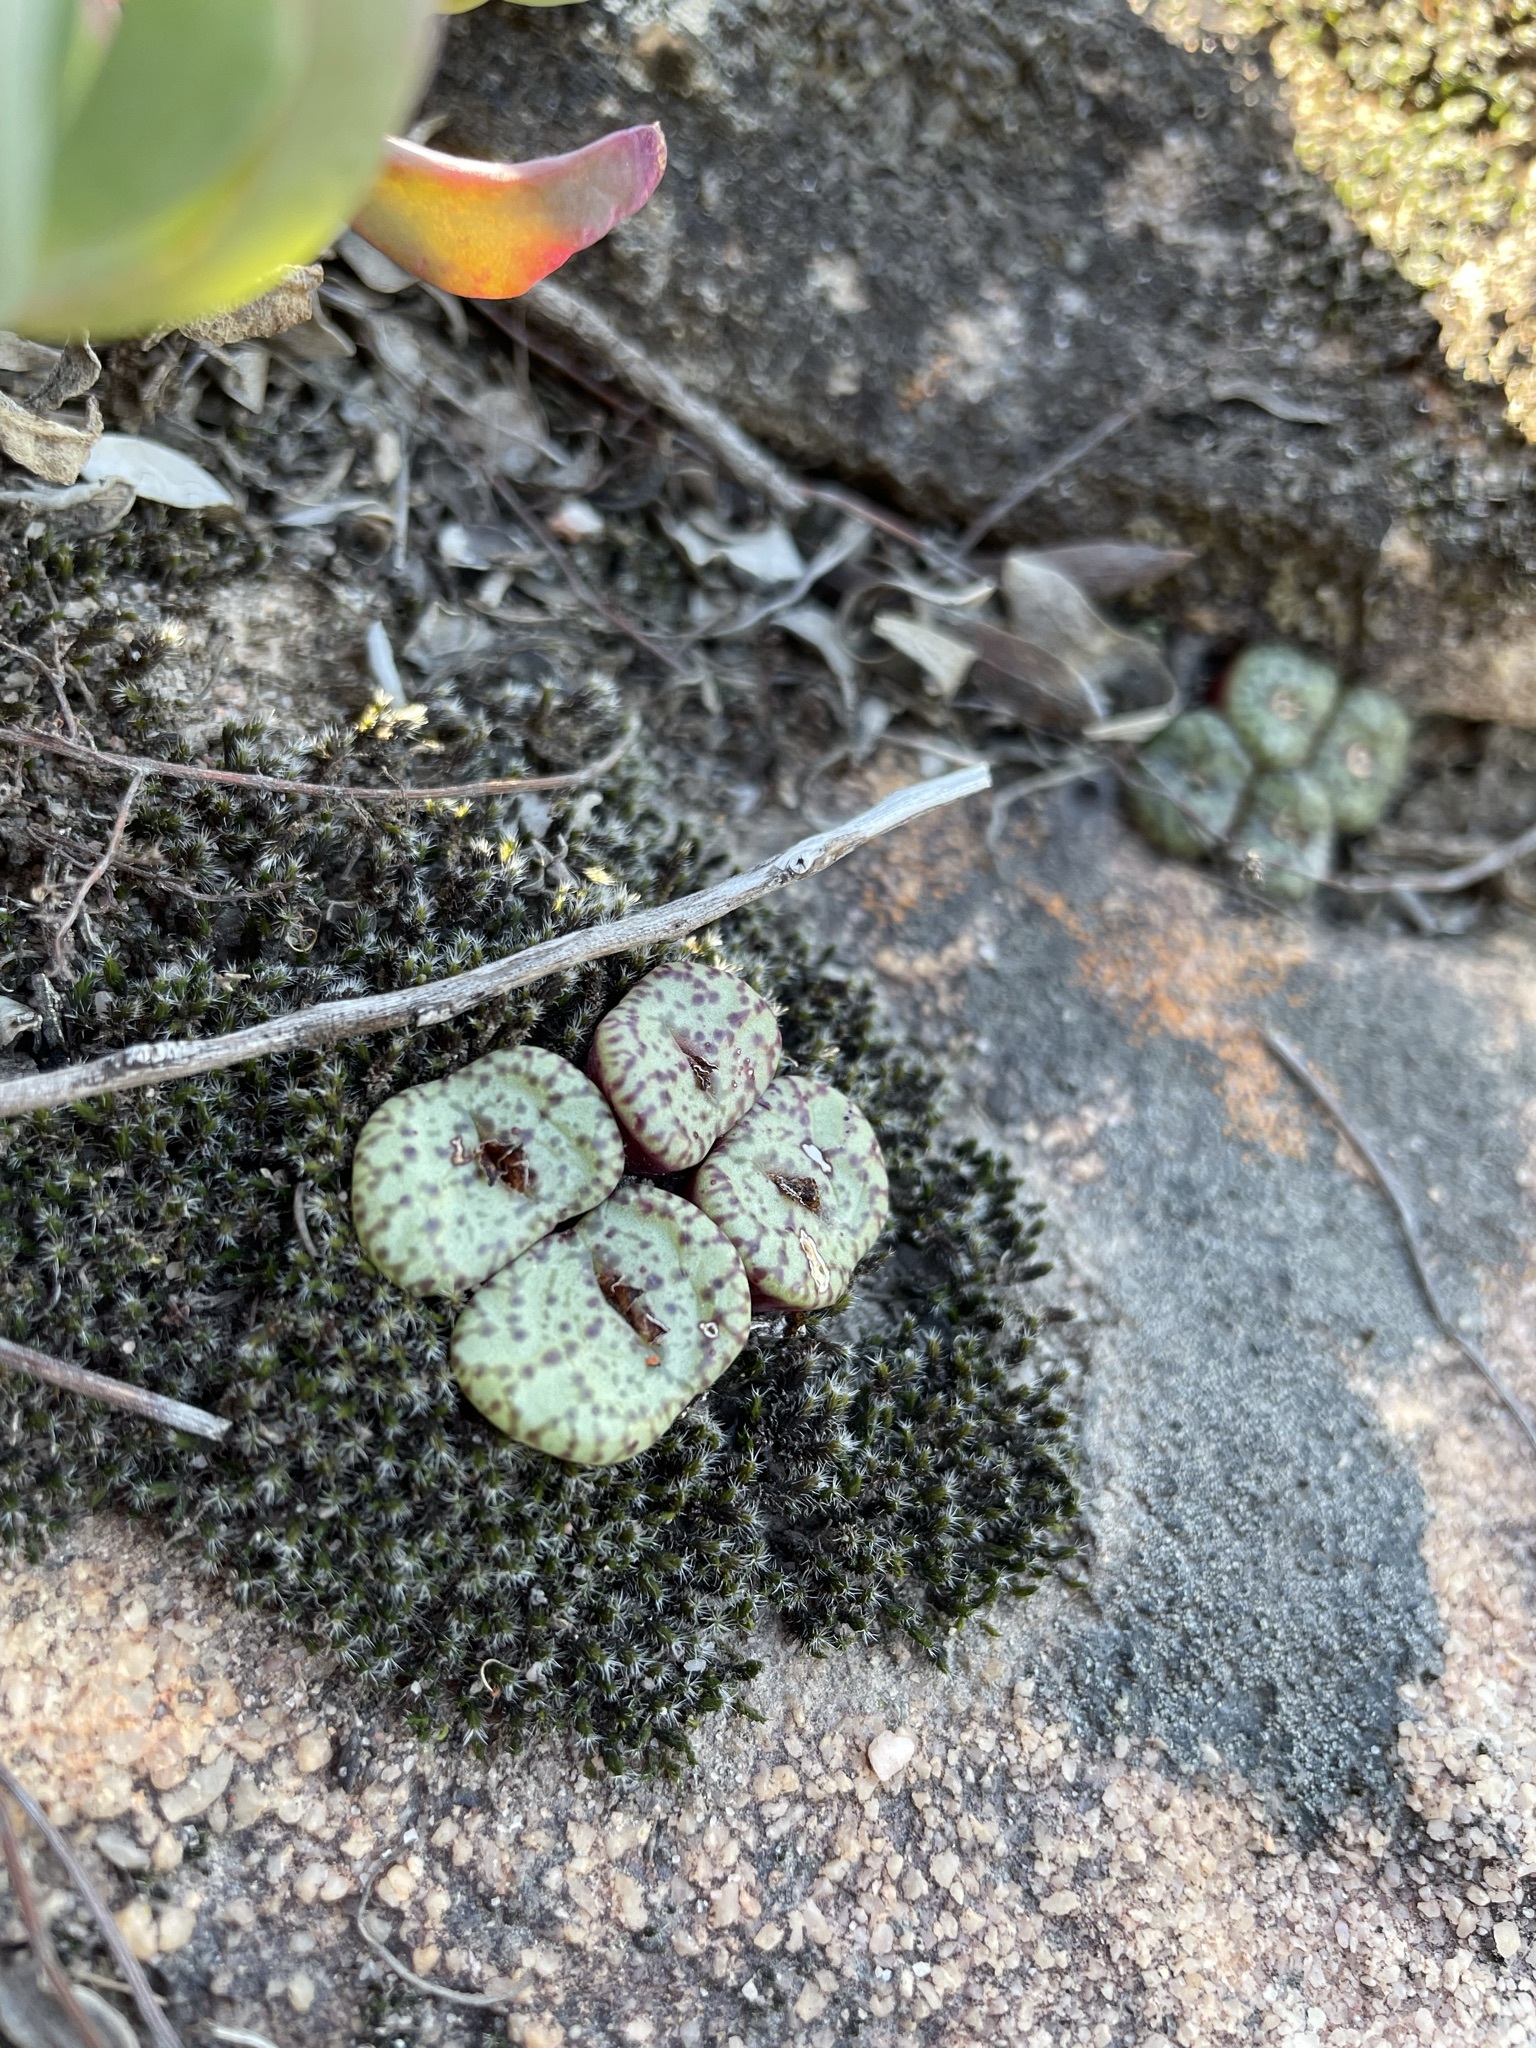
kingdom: Plantae
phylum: Tracheophyta
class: Magnoliopsida
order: Caryophyllales
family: Aizoaceae
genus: Conophytum
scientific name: Conophytum obcordellum
